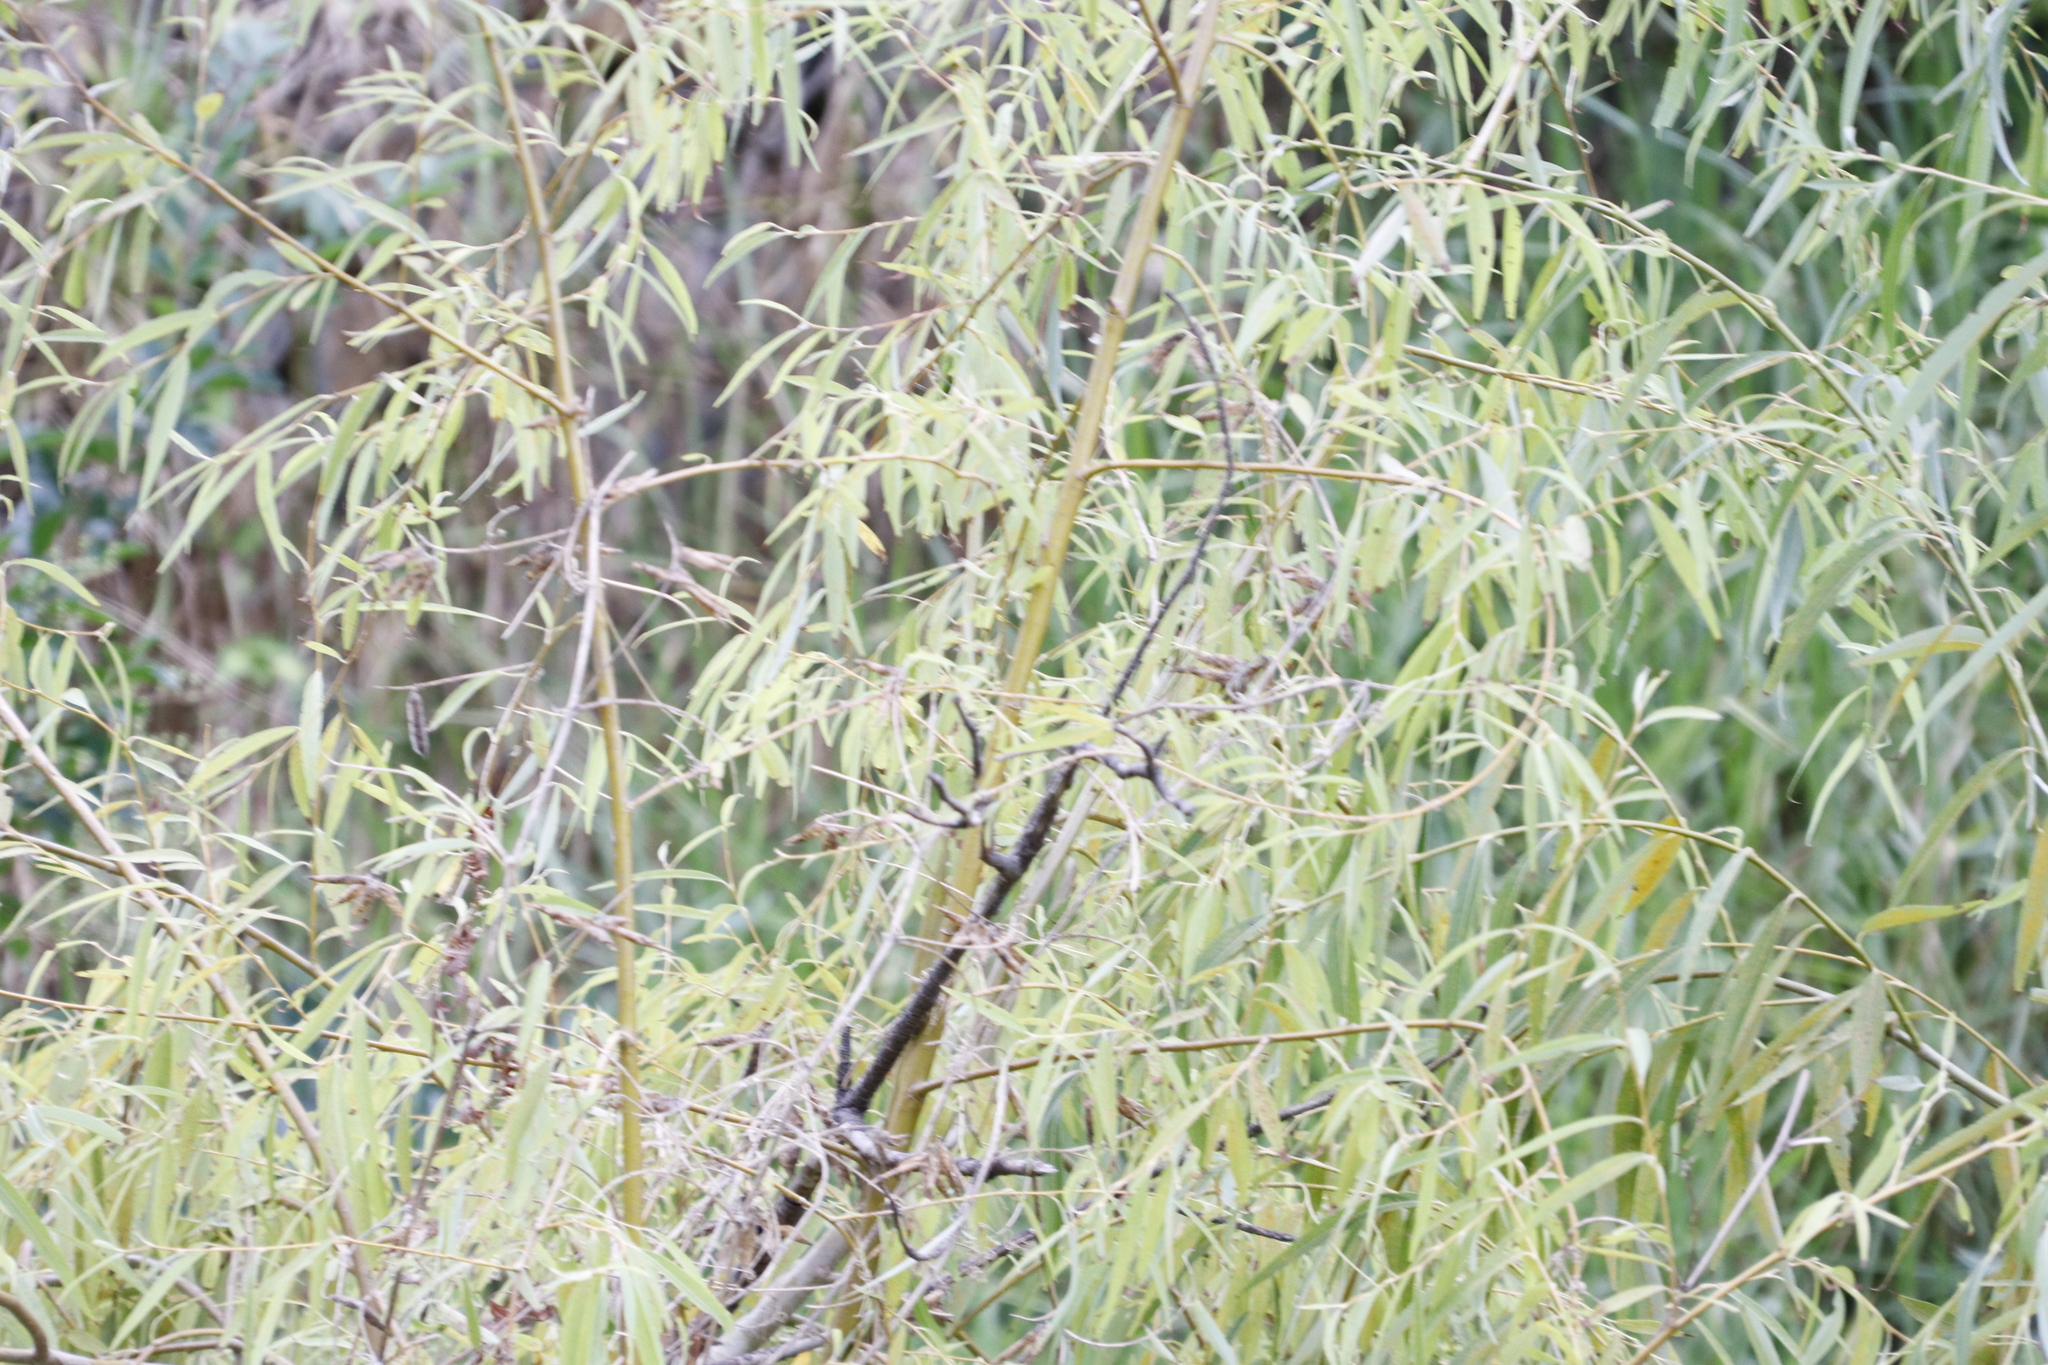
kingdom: Plantae
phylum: Tracheophyta
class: Magnoliopsida
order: Malpighiales
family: Salicaceae
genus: Salix
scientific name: Salix babylonica
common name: Weeping willow
